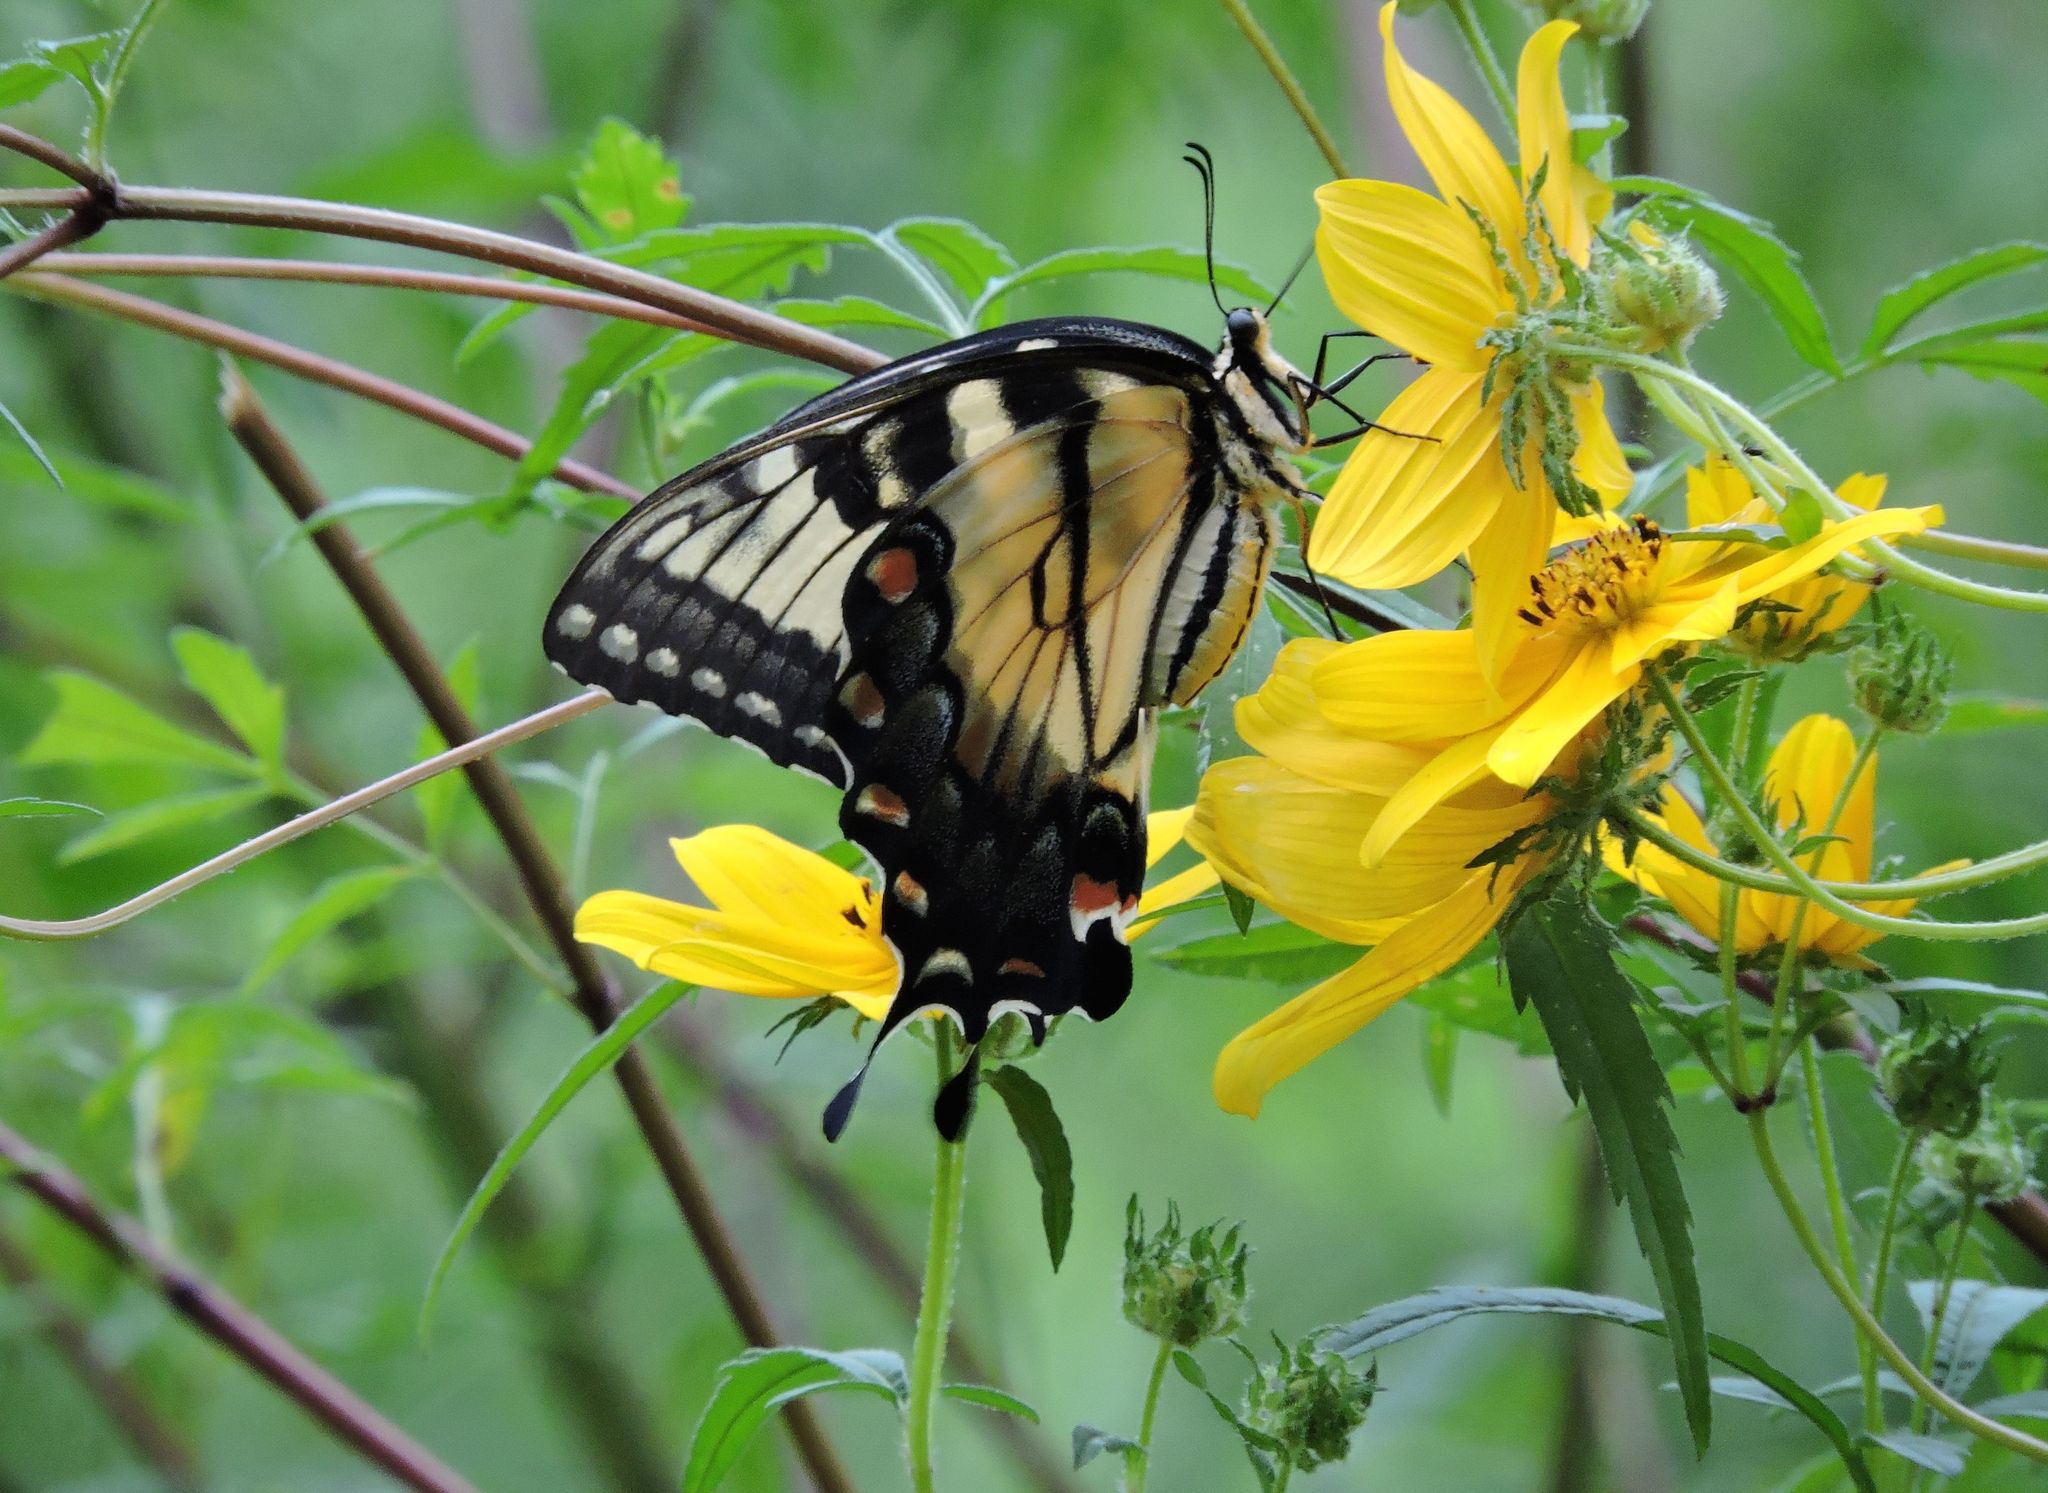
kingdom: Animalia
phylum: Arthropoda
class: Insecta
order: Lepidoptera
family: Papilionidae
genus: Papilio
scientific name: Papilio glaucus
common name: Tiger swallowtail
